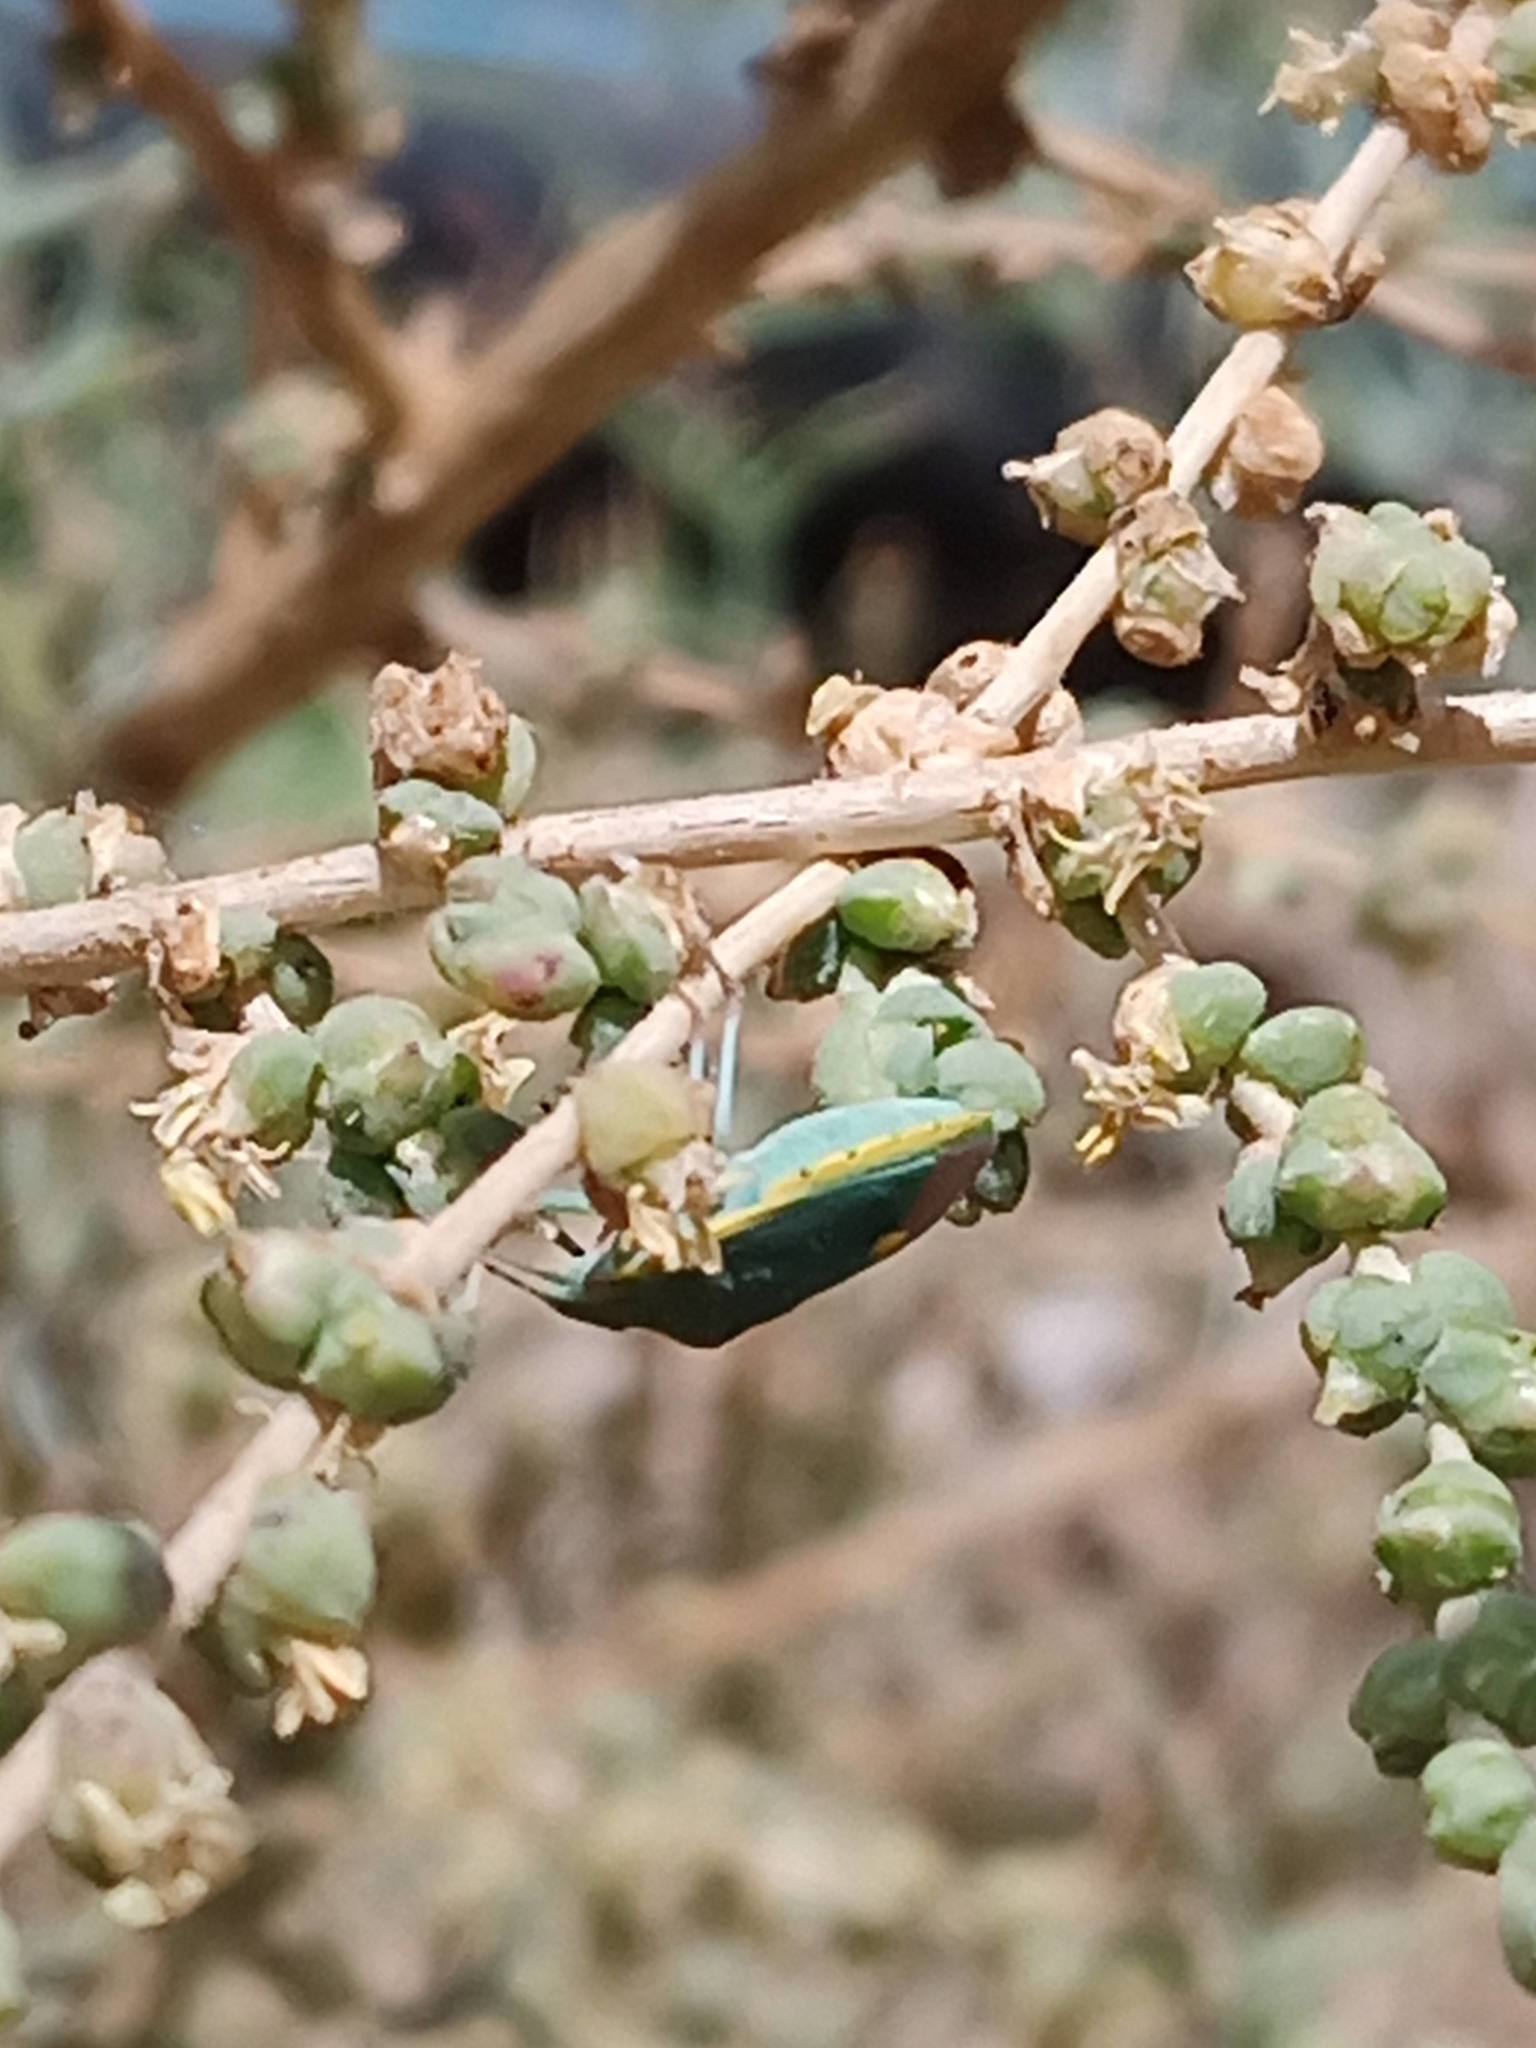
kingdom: Animalia
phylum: Arthropoda
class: Insecta
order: Hemiptera
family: Pentatomidae
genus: Brachynema
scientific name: Brachynema cinctum
